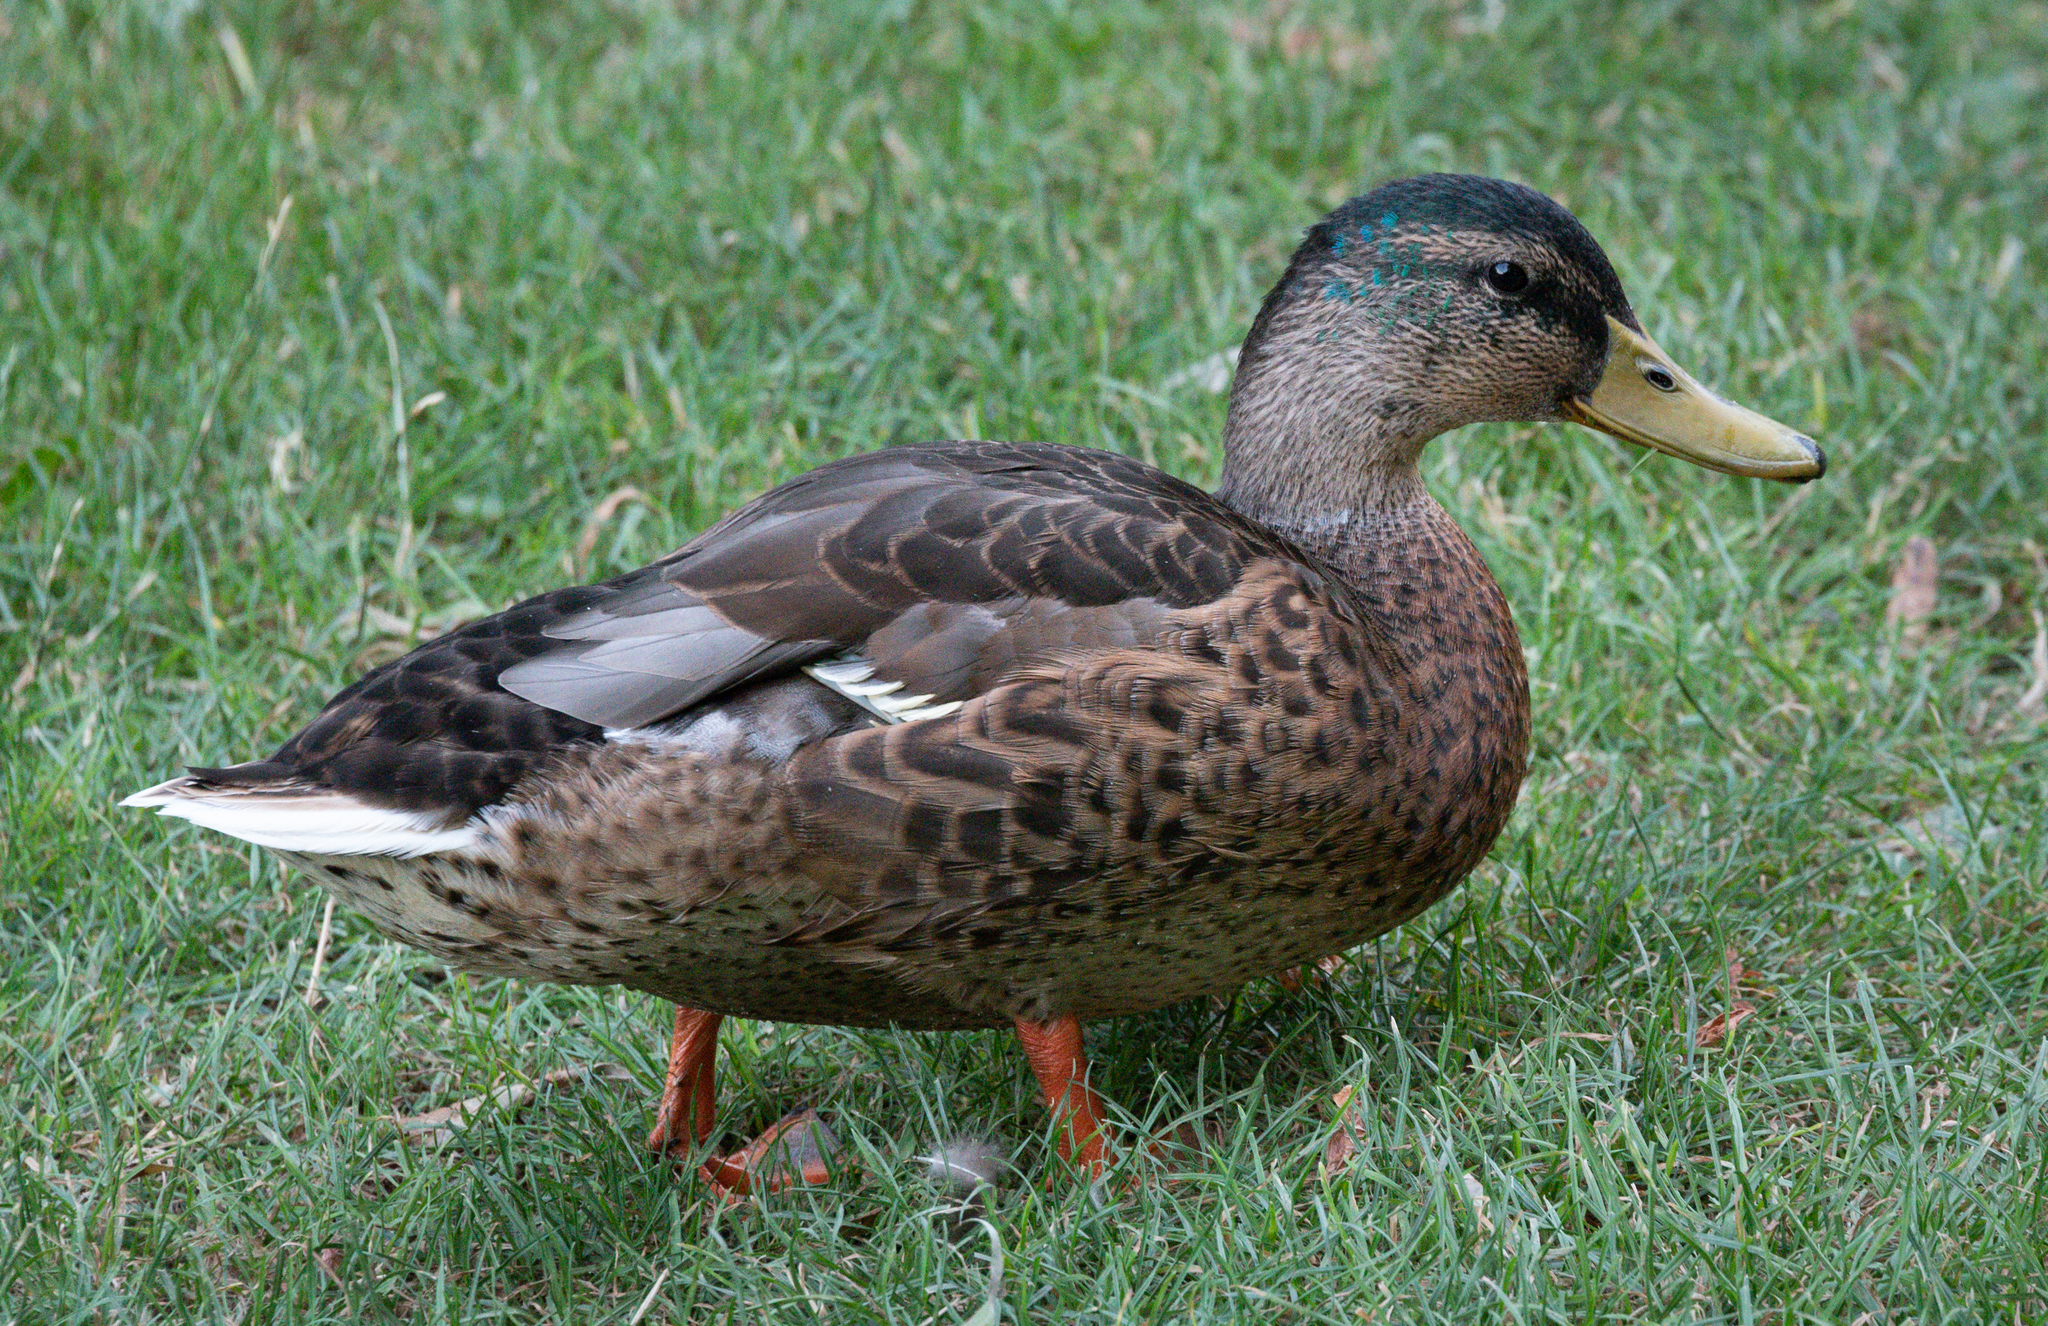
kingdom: Animalia
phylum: Chordata
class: Aves
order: Anseriformes
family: Anatidae
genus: Anas
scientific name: Anas platyrhynchos
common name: Mallard
